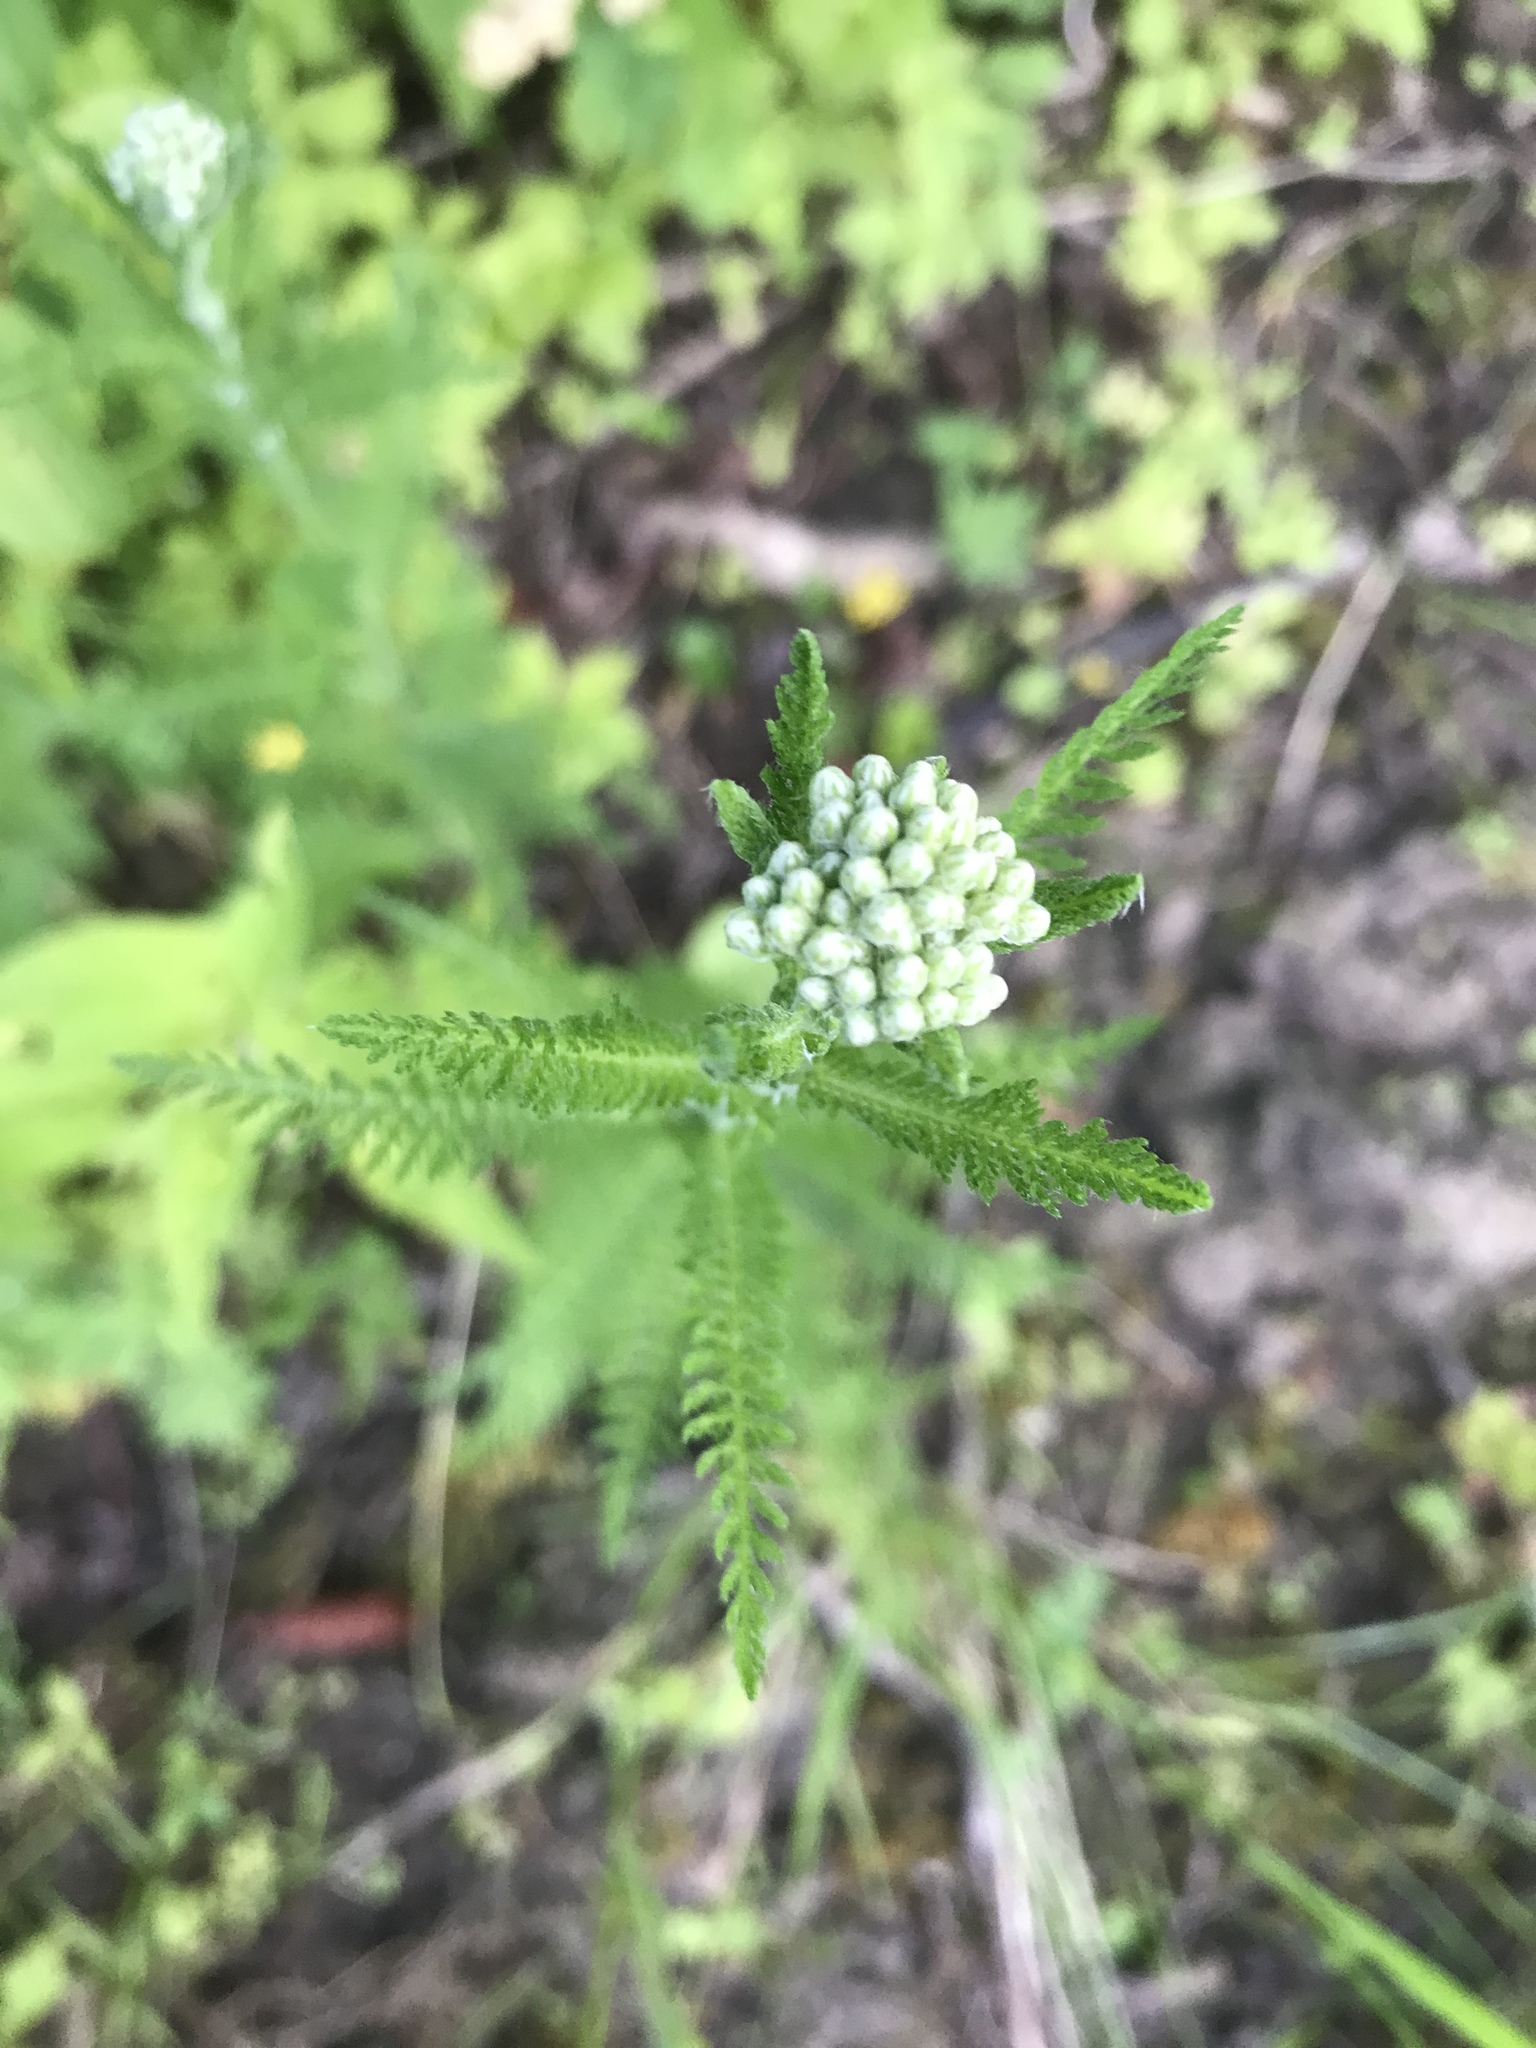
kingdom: Plantae
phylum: Tracheophyta
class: Magnoliopsida
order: Asterales
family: Asteraceae
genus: Achillea
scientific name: Achillea millefolium
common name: Yarrow
